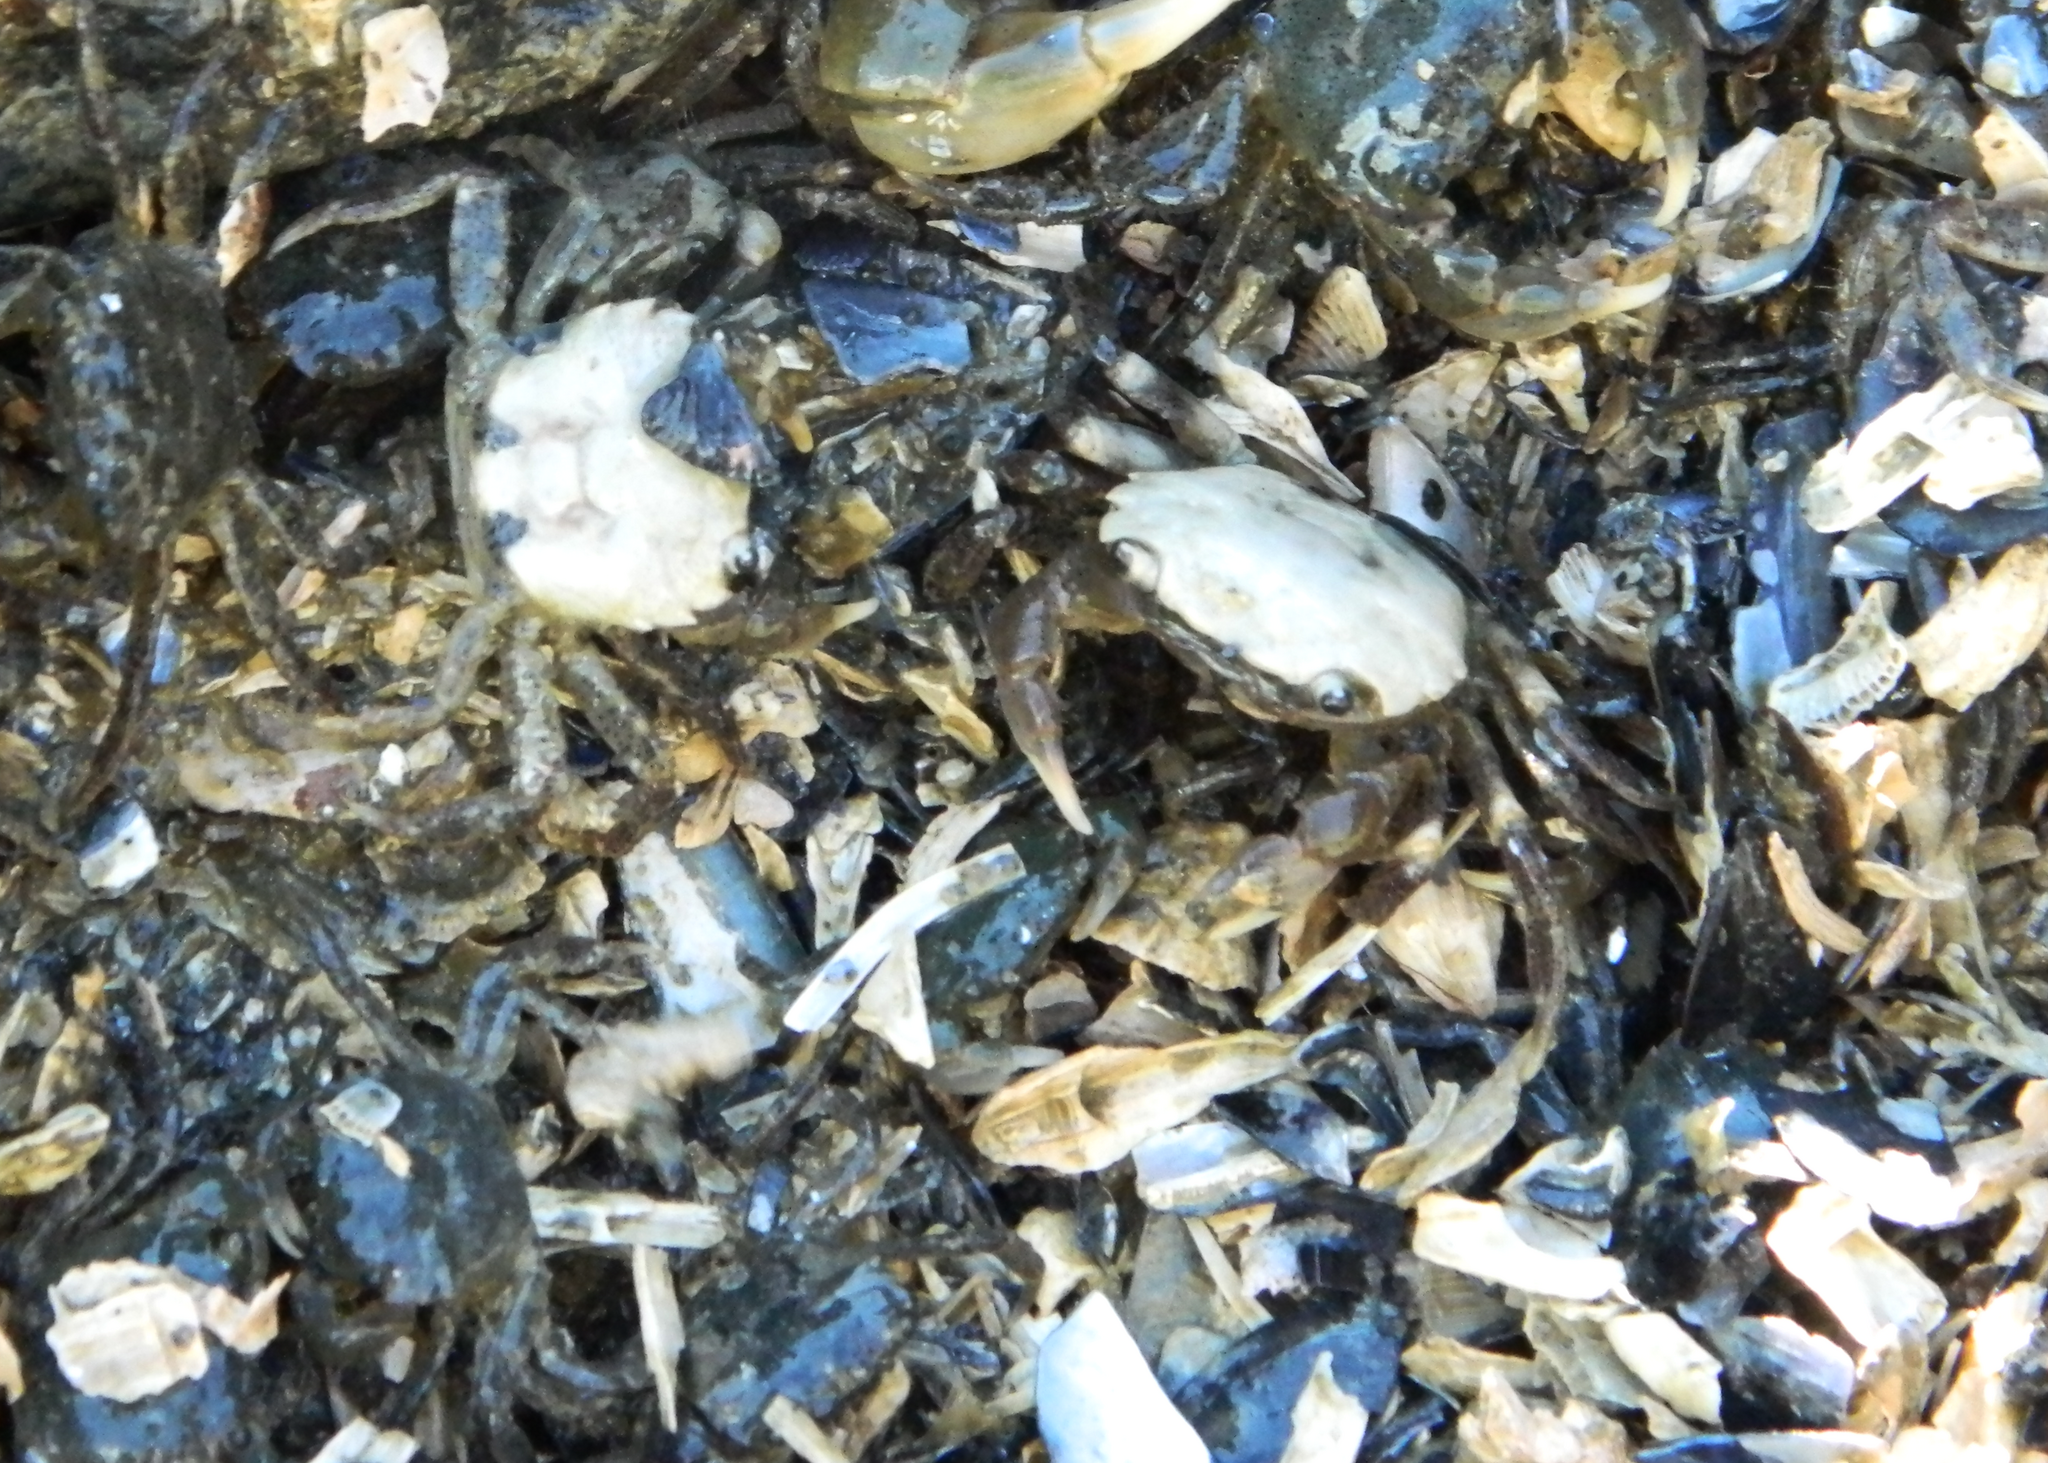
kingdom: Animalia
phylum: Arthropoda
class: Malacostraca
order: Decapoda
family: Varunidae
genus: Hemigrapsus
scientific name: Hemigrapsus oregonensis
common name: Yellow shore crab
